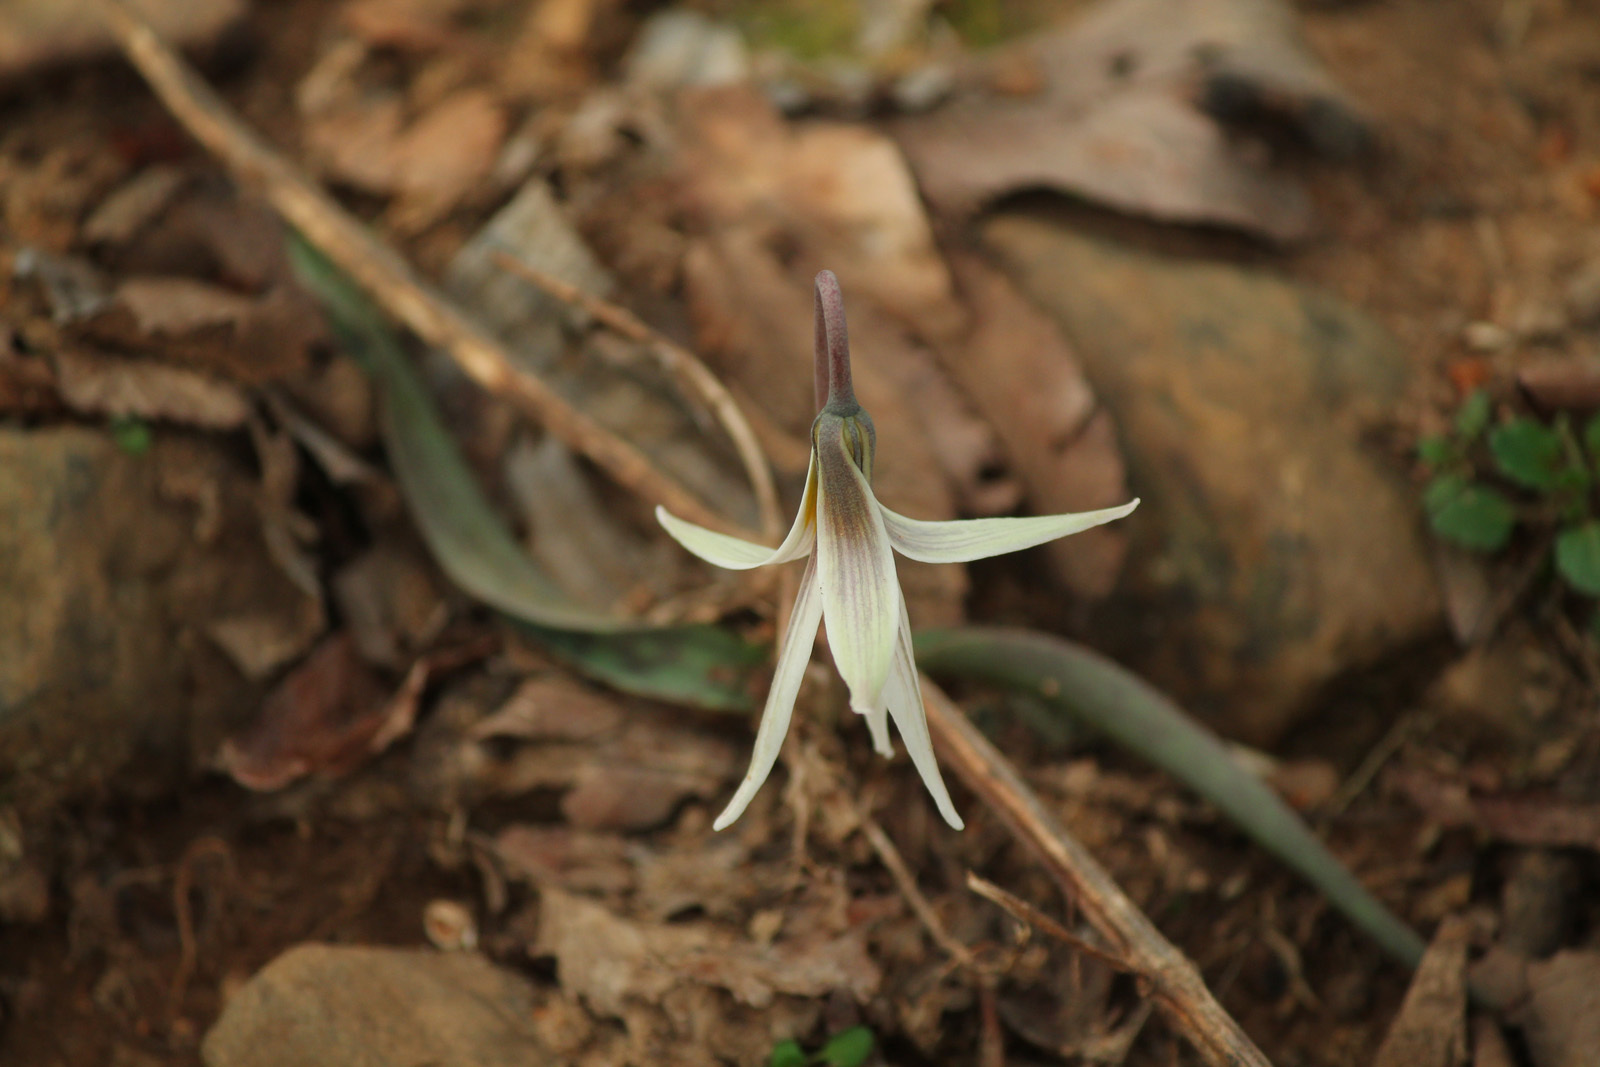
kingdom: Plantae
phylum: Tracheophyta
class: Liliopsida
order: Liliales
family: Liliaceae
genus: Erythronium
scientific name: Erythronium albidum
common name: White trout-lily
